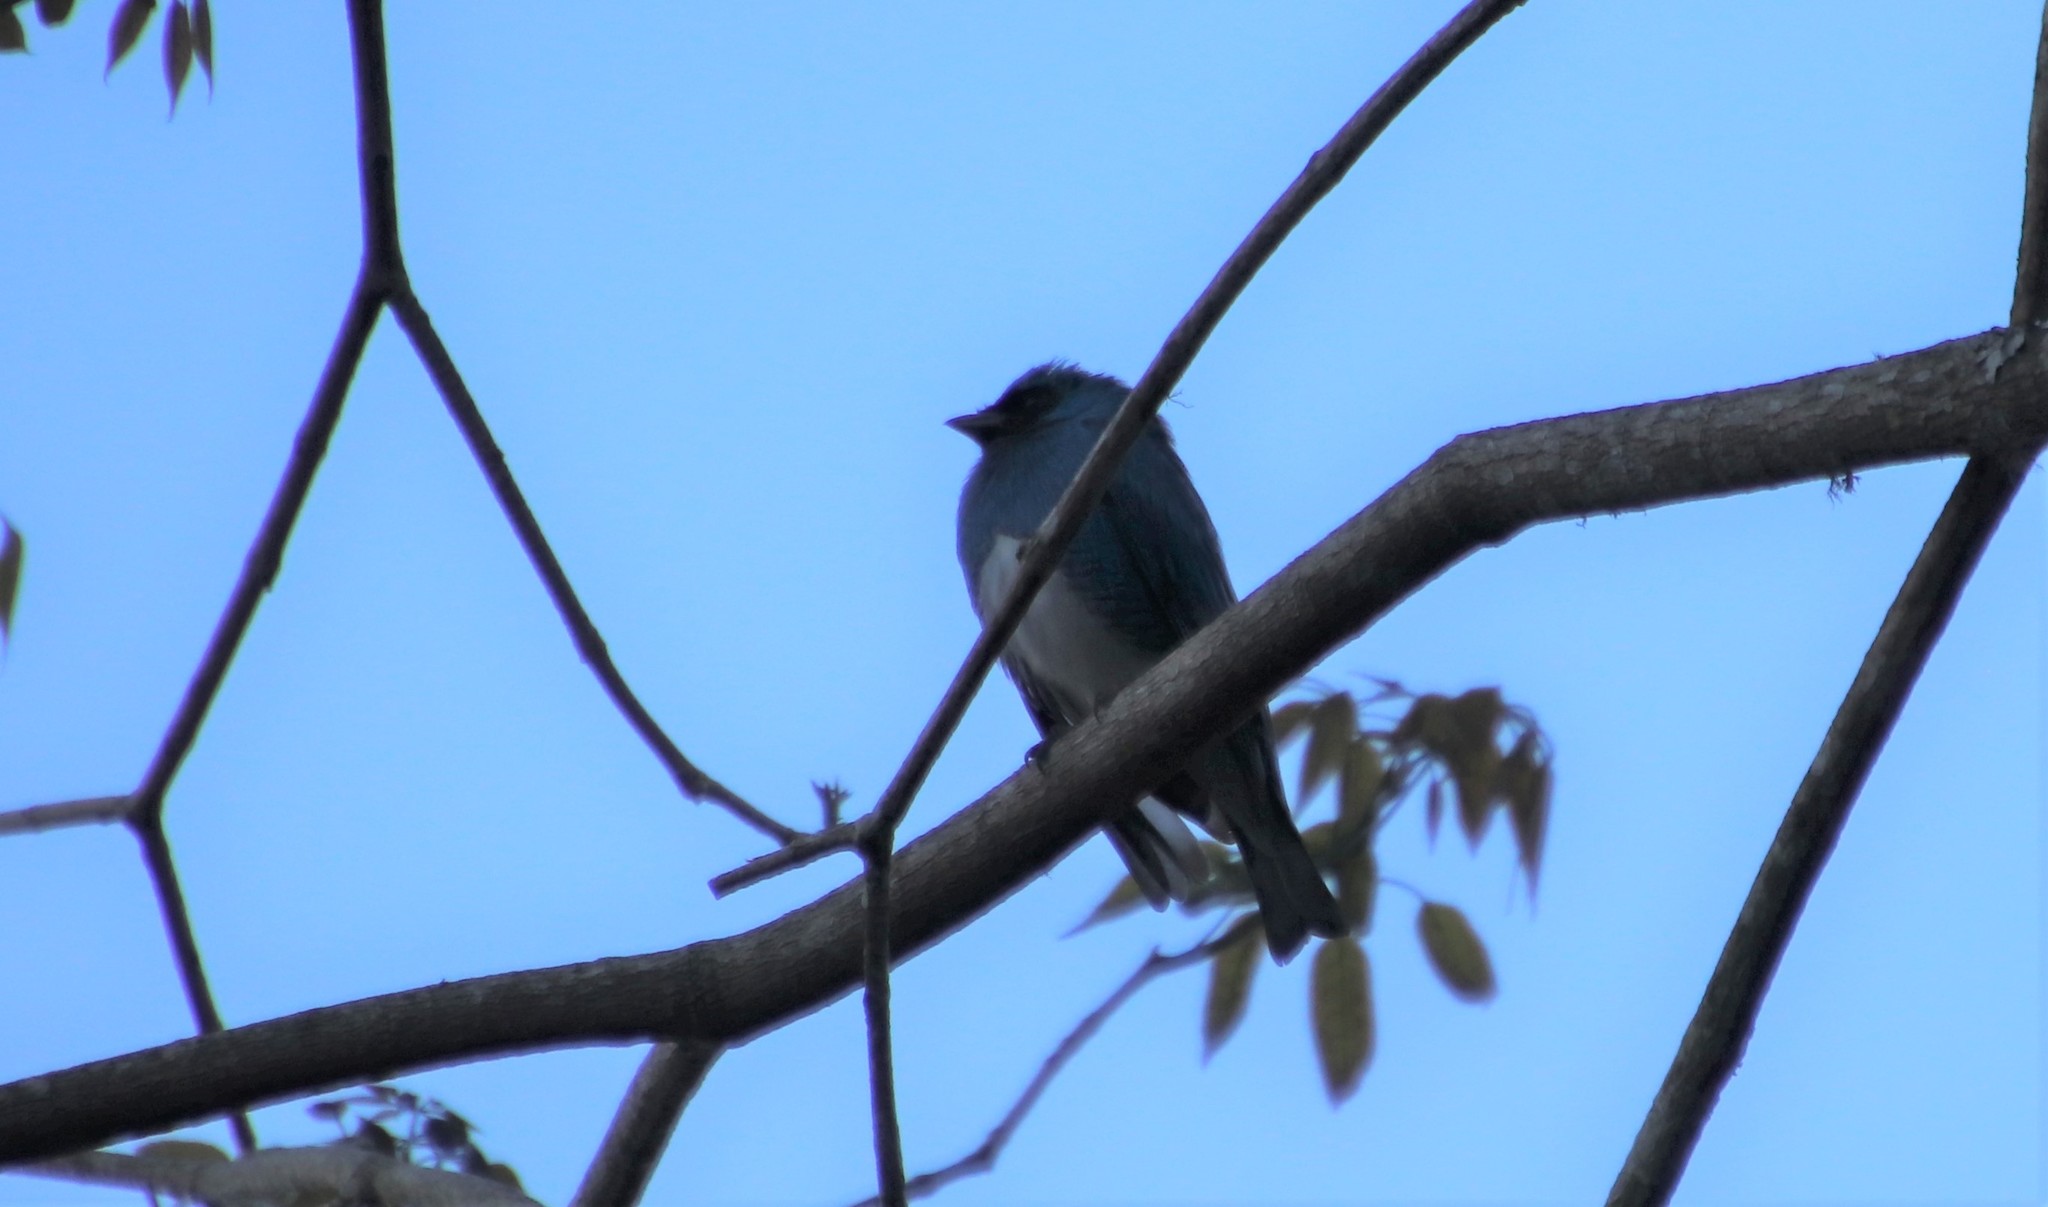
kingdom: Animalia
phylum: Chordata
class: Aves
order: Passeriformes
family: Thraupidae
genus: Tersina
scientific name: Tersina viridis
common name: Swallow tanager
